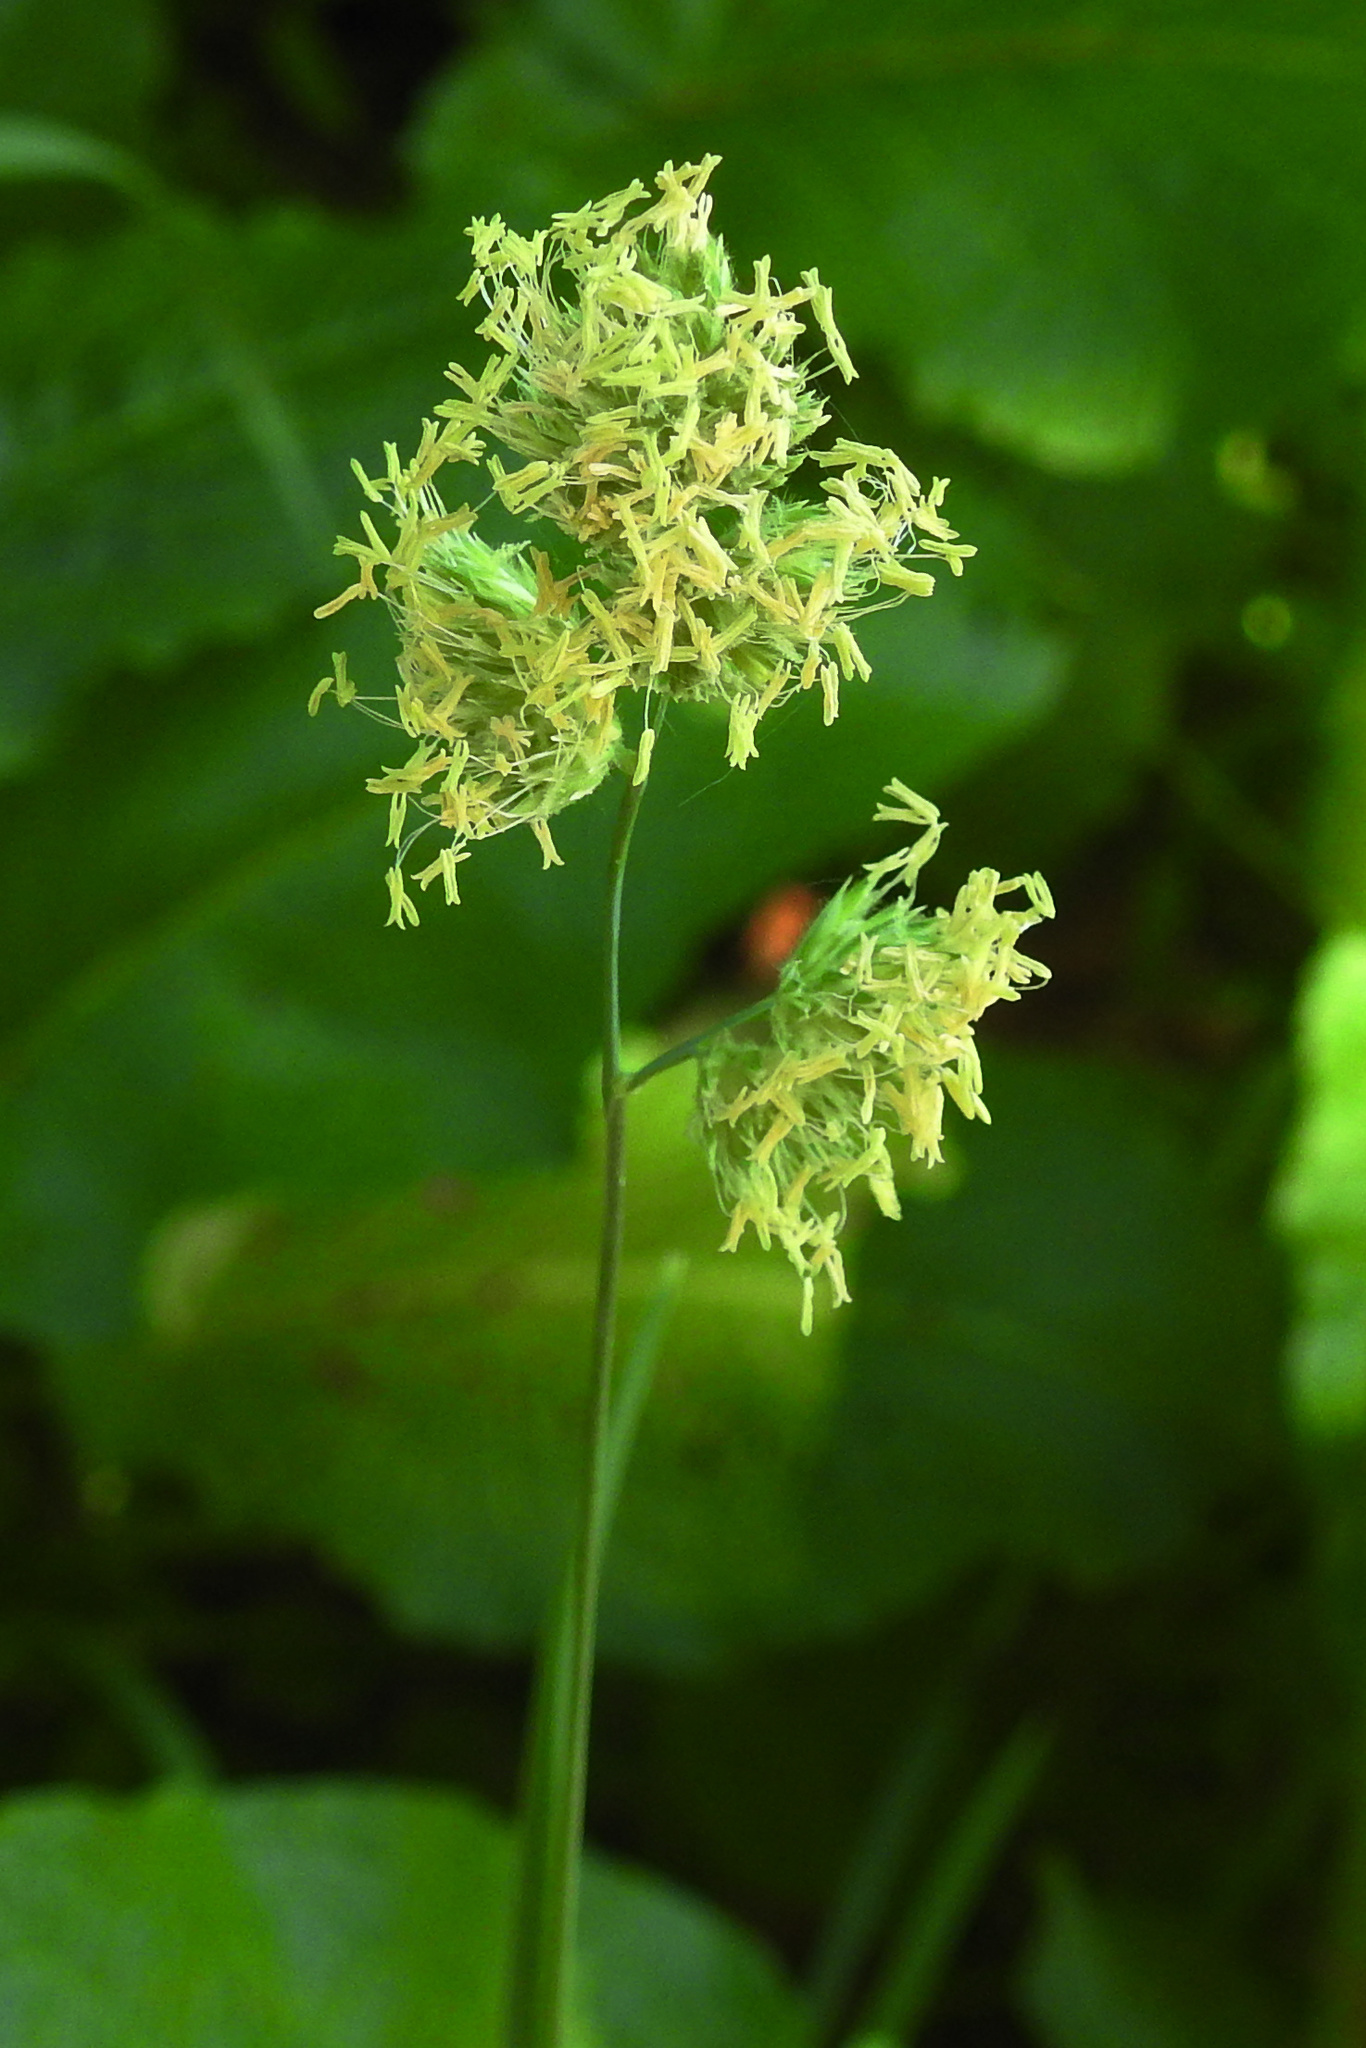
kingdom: Plantae
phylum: Tracheophyta
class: Liliopsida
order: Poales
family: Poaceae
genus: Dactylis
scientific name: Dactylis glomerata
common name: Orchardgrass
